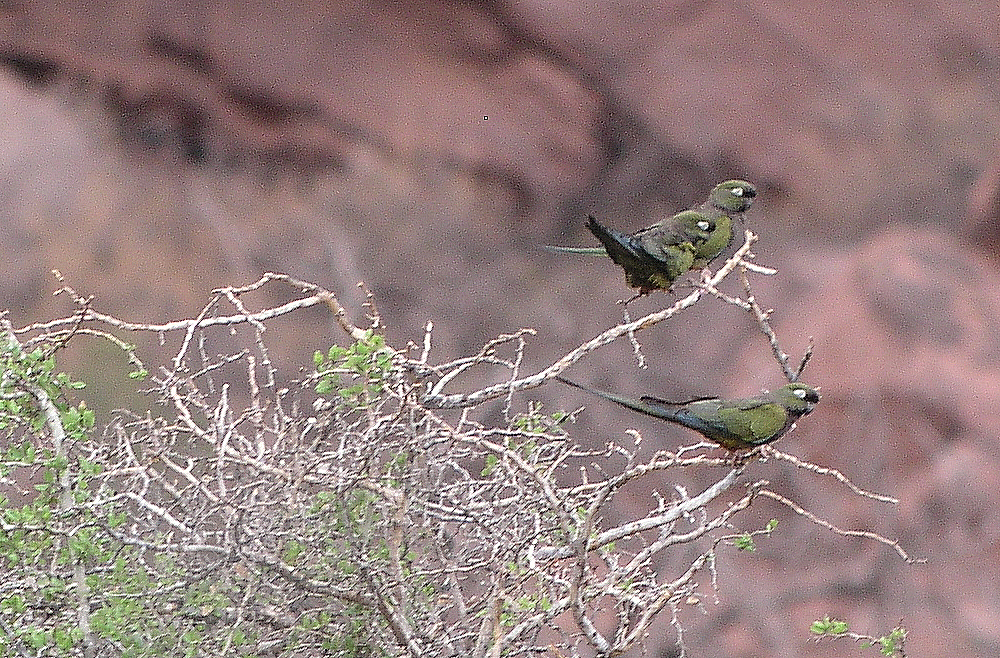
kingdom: Animalia
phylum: Chordata
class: Aves
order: Psittaciformes
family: Psittacidae
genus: Cyanoliseus
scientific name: Cyanoliseus patagonus
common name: Burrowing parrot
